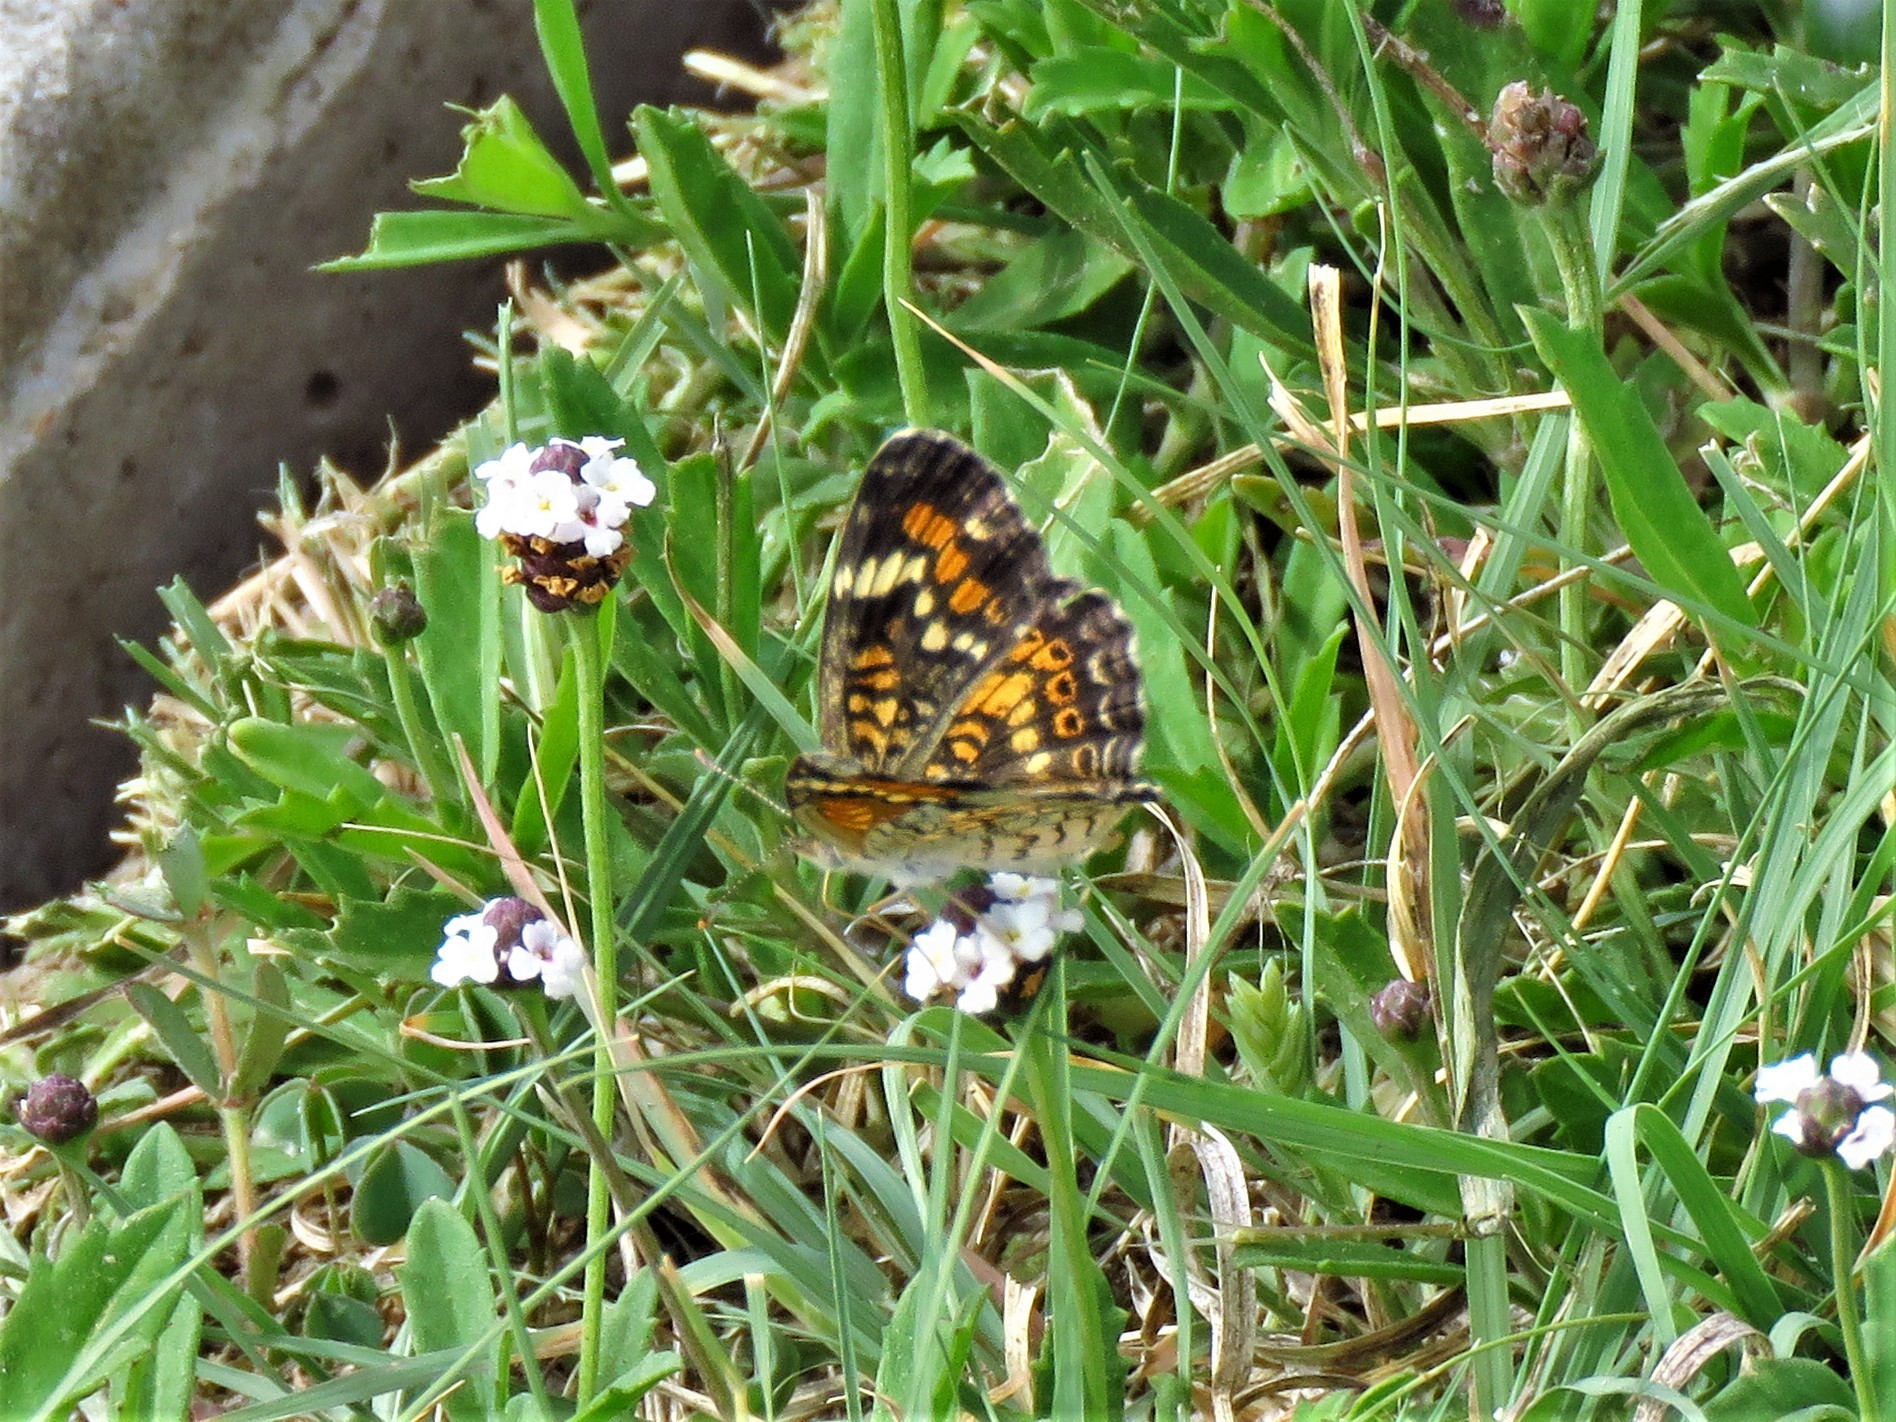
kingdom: Animalia
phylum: Arthropoda
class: Insecta
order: Lepidoptera
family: Nymphalidae
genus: Phyciodes
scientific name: Phyciodes phaon
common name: Phaon crescent
